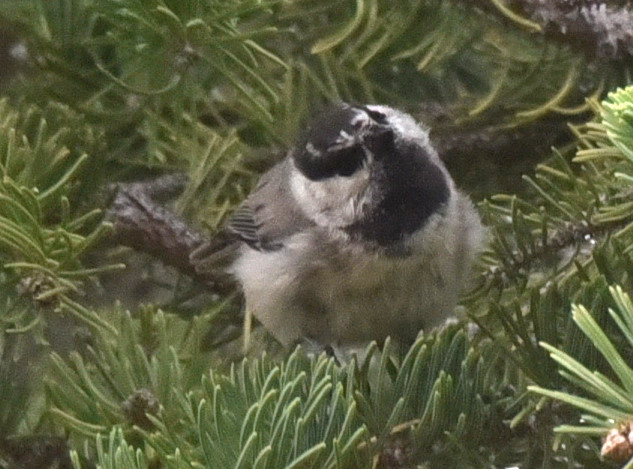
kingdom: Animalia
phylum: Chordata
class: Aves
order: Passeriformes
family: Paridae
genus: Poecile
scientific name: Poecile gambeli
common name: Mountain chickadee
